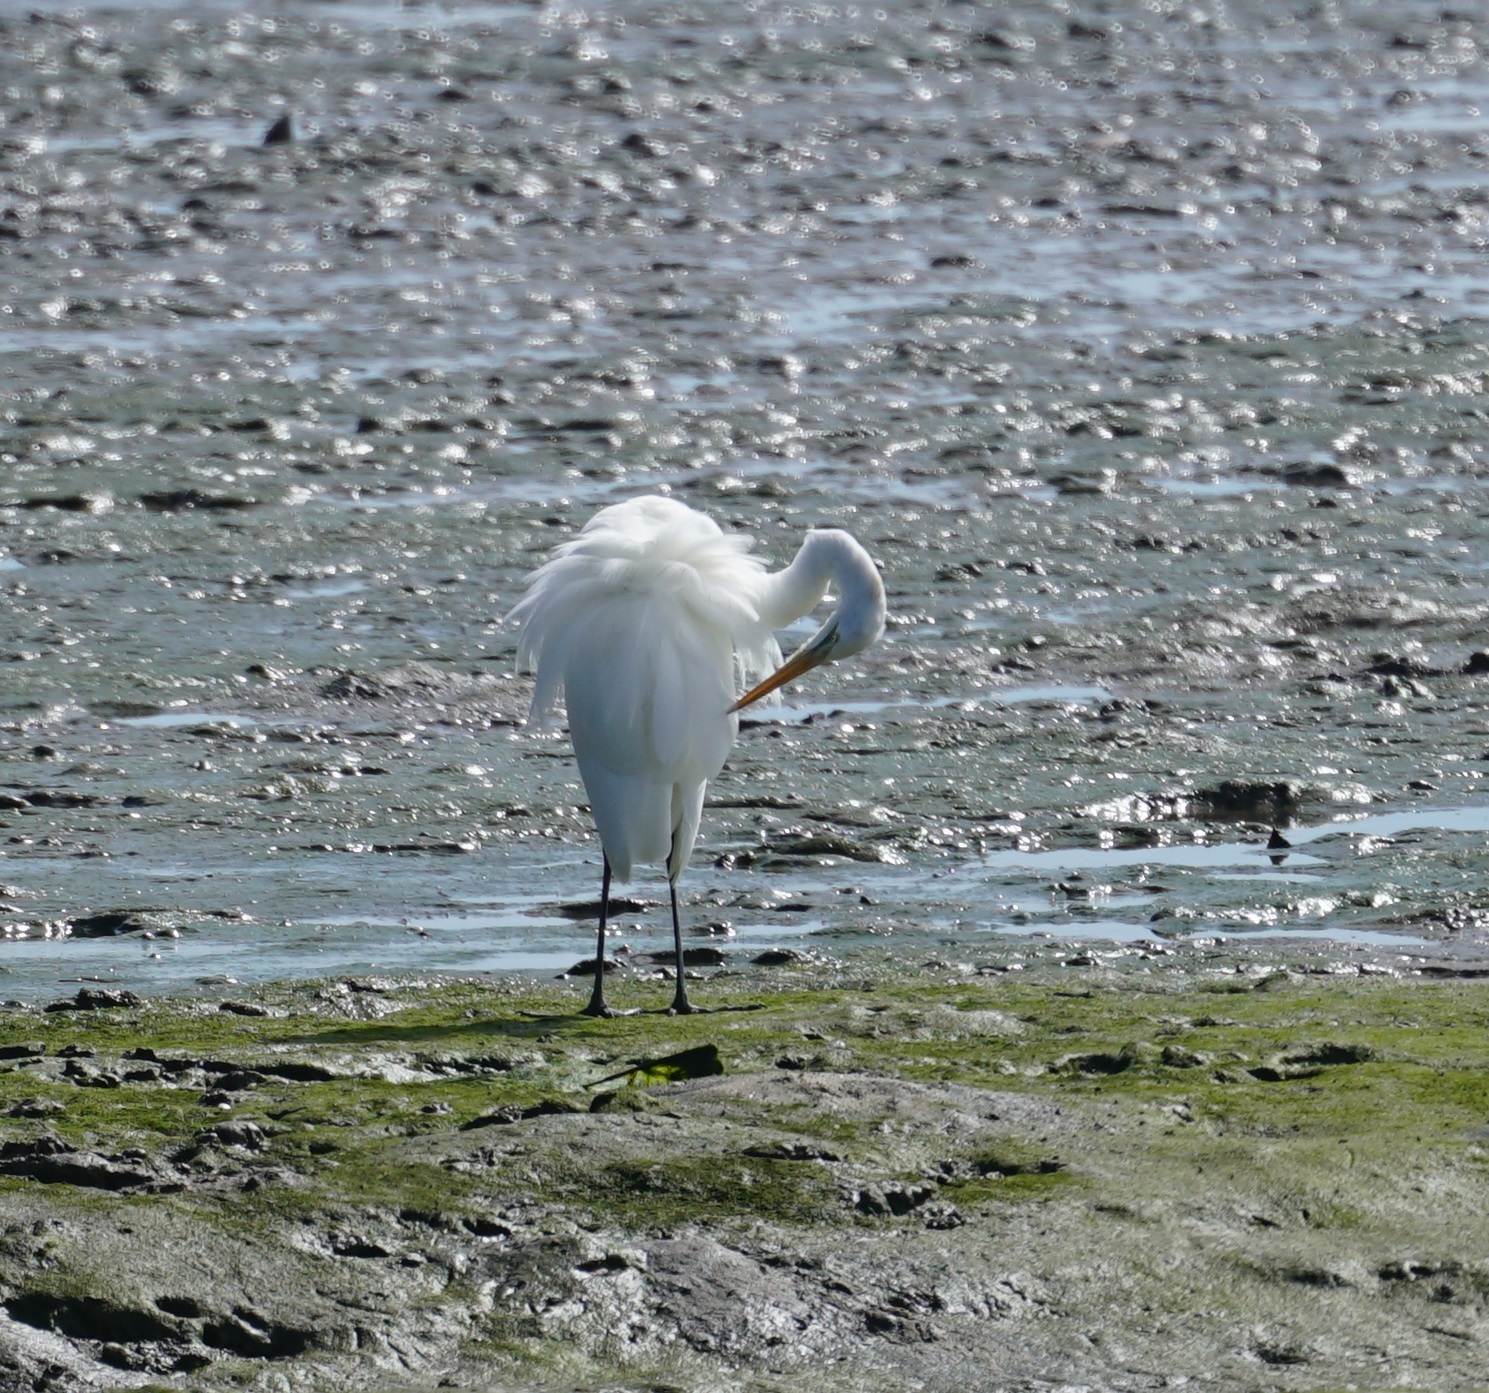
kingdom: Animalia
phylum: Chordata
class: Aves
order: Pelecaniformes
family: Ardeidae
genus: Ardea
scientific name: Ardea modesta
